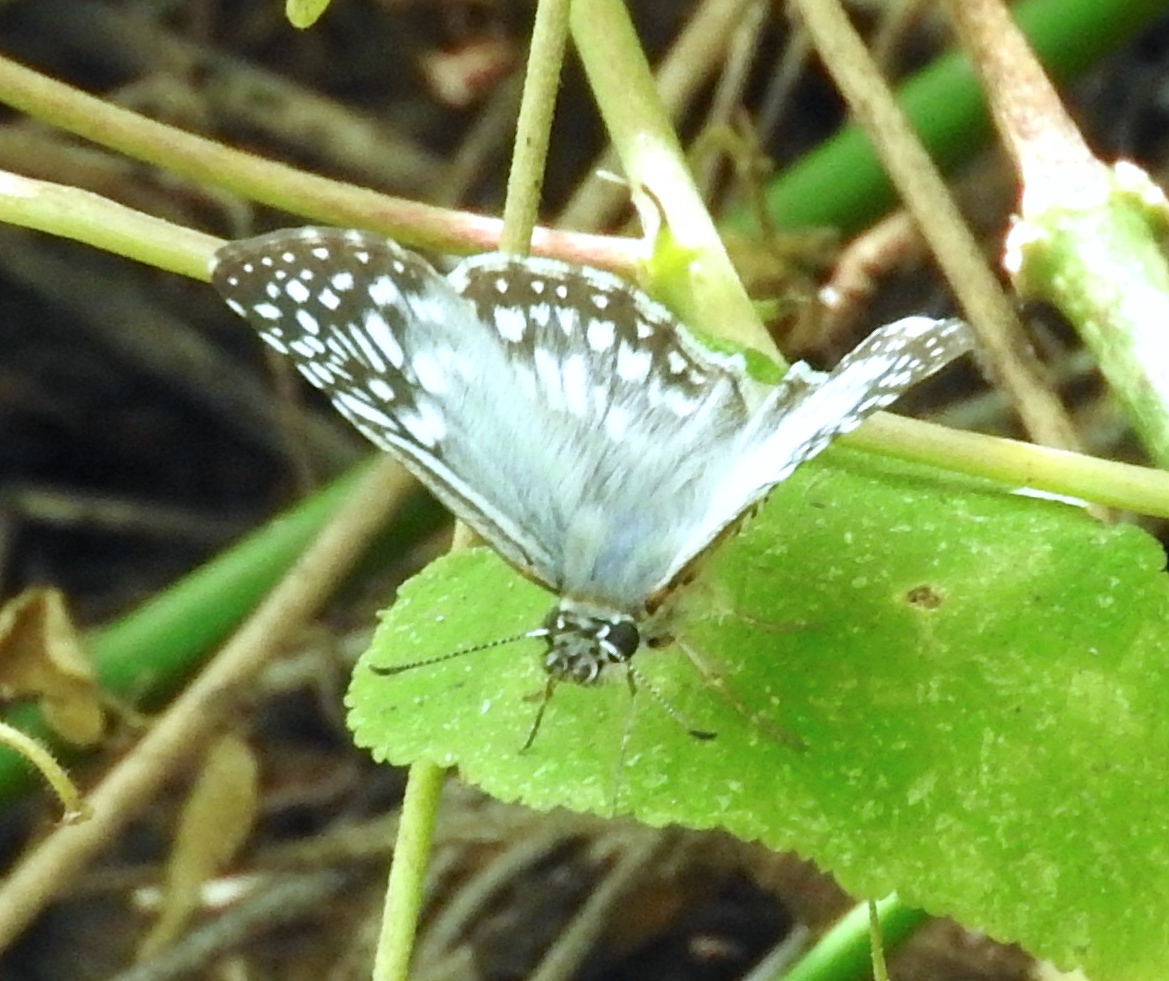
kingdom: Animalia
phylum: Arthropoda
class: Insecta
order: Lepidoptera
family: Hesperiidae
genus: Pyrgus
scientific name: Pyrgus oileus
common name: Tropical checkered-skipper
